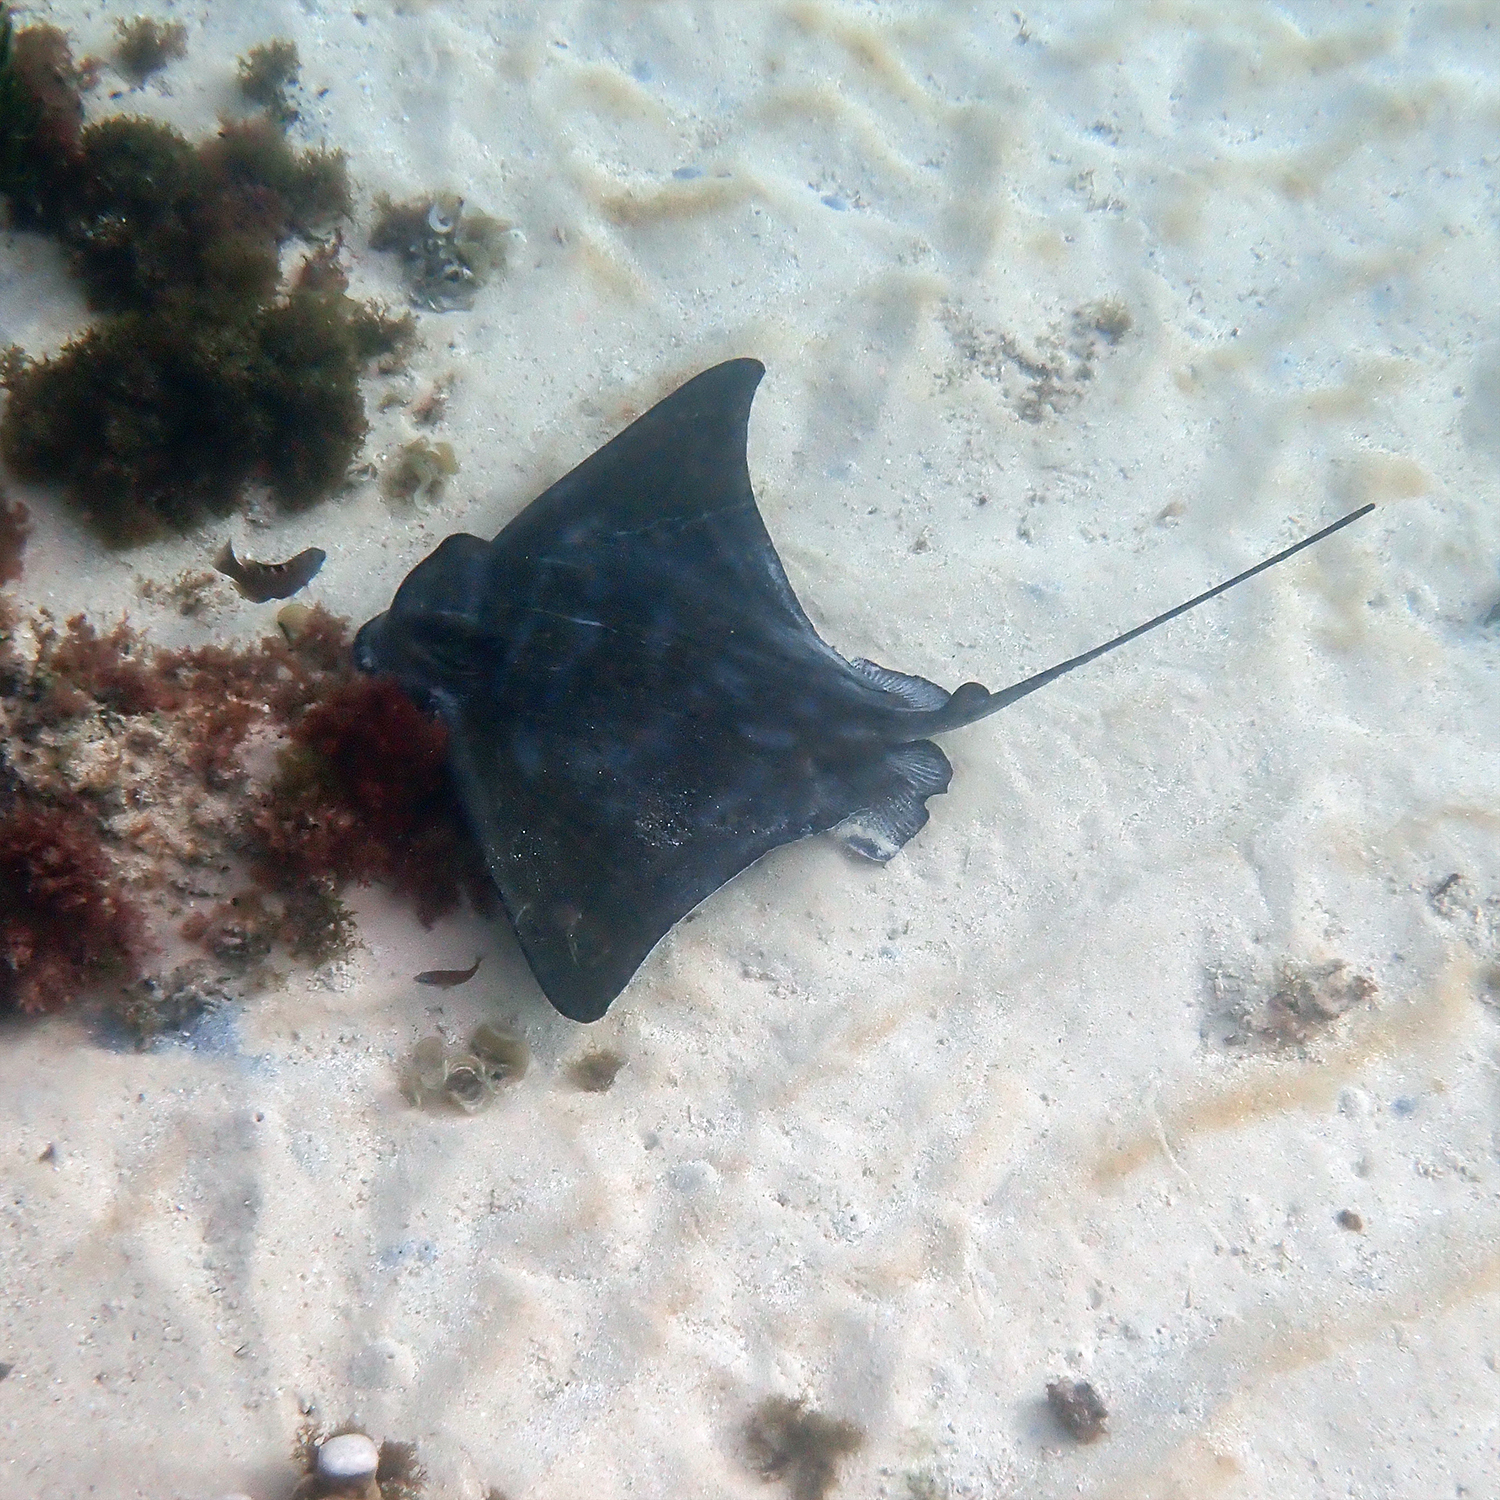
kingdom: Animalia
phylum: Chordata
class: Elasmobranchii
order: Myliobatiformes
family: Myliobatidae
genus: Myliobatis
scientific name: Myliobatis tenuicaudatus
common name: Eagle ray
